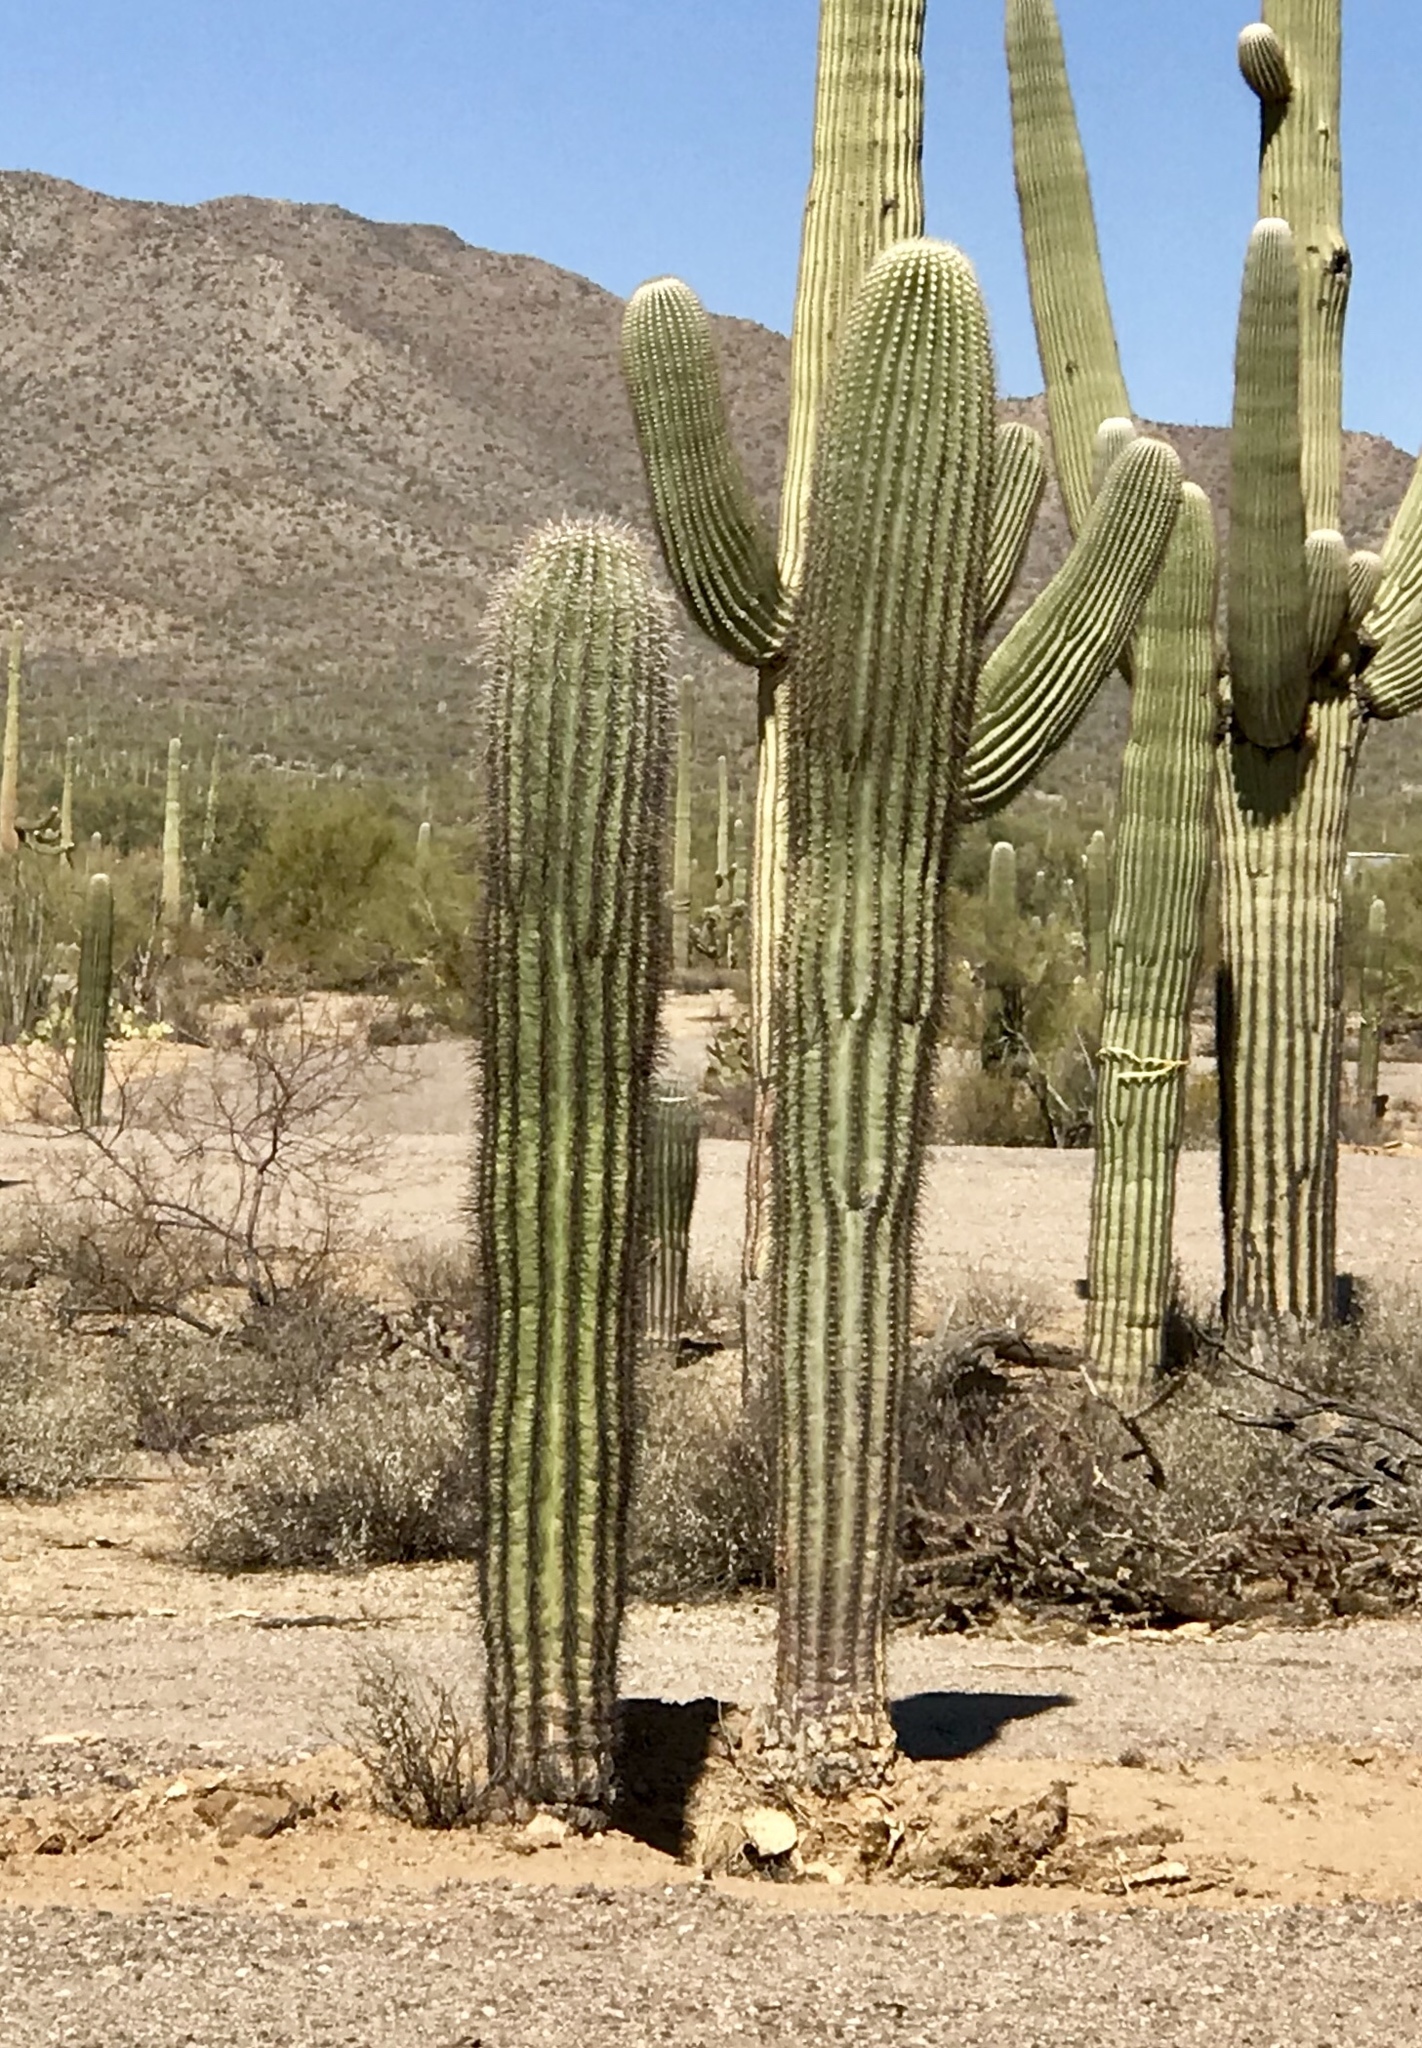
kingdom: Plantae
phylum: Tracheophyta
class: Magnoliopsida
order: Caryophyllales
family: Cactaceae
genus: Carnegiea
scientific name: Carnegiea gigantea
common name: Saguaro
